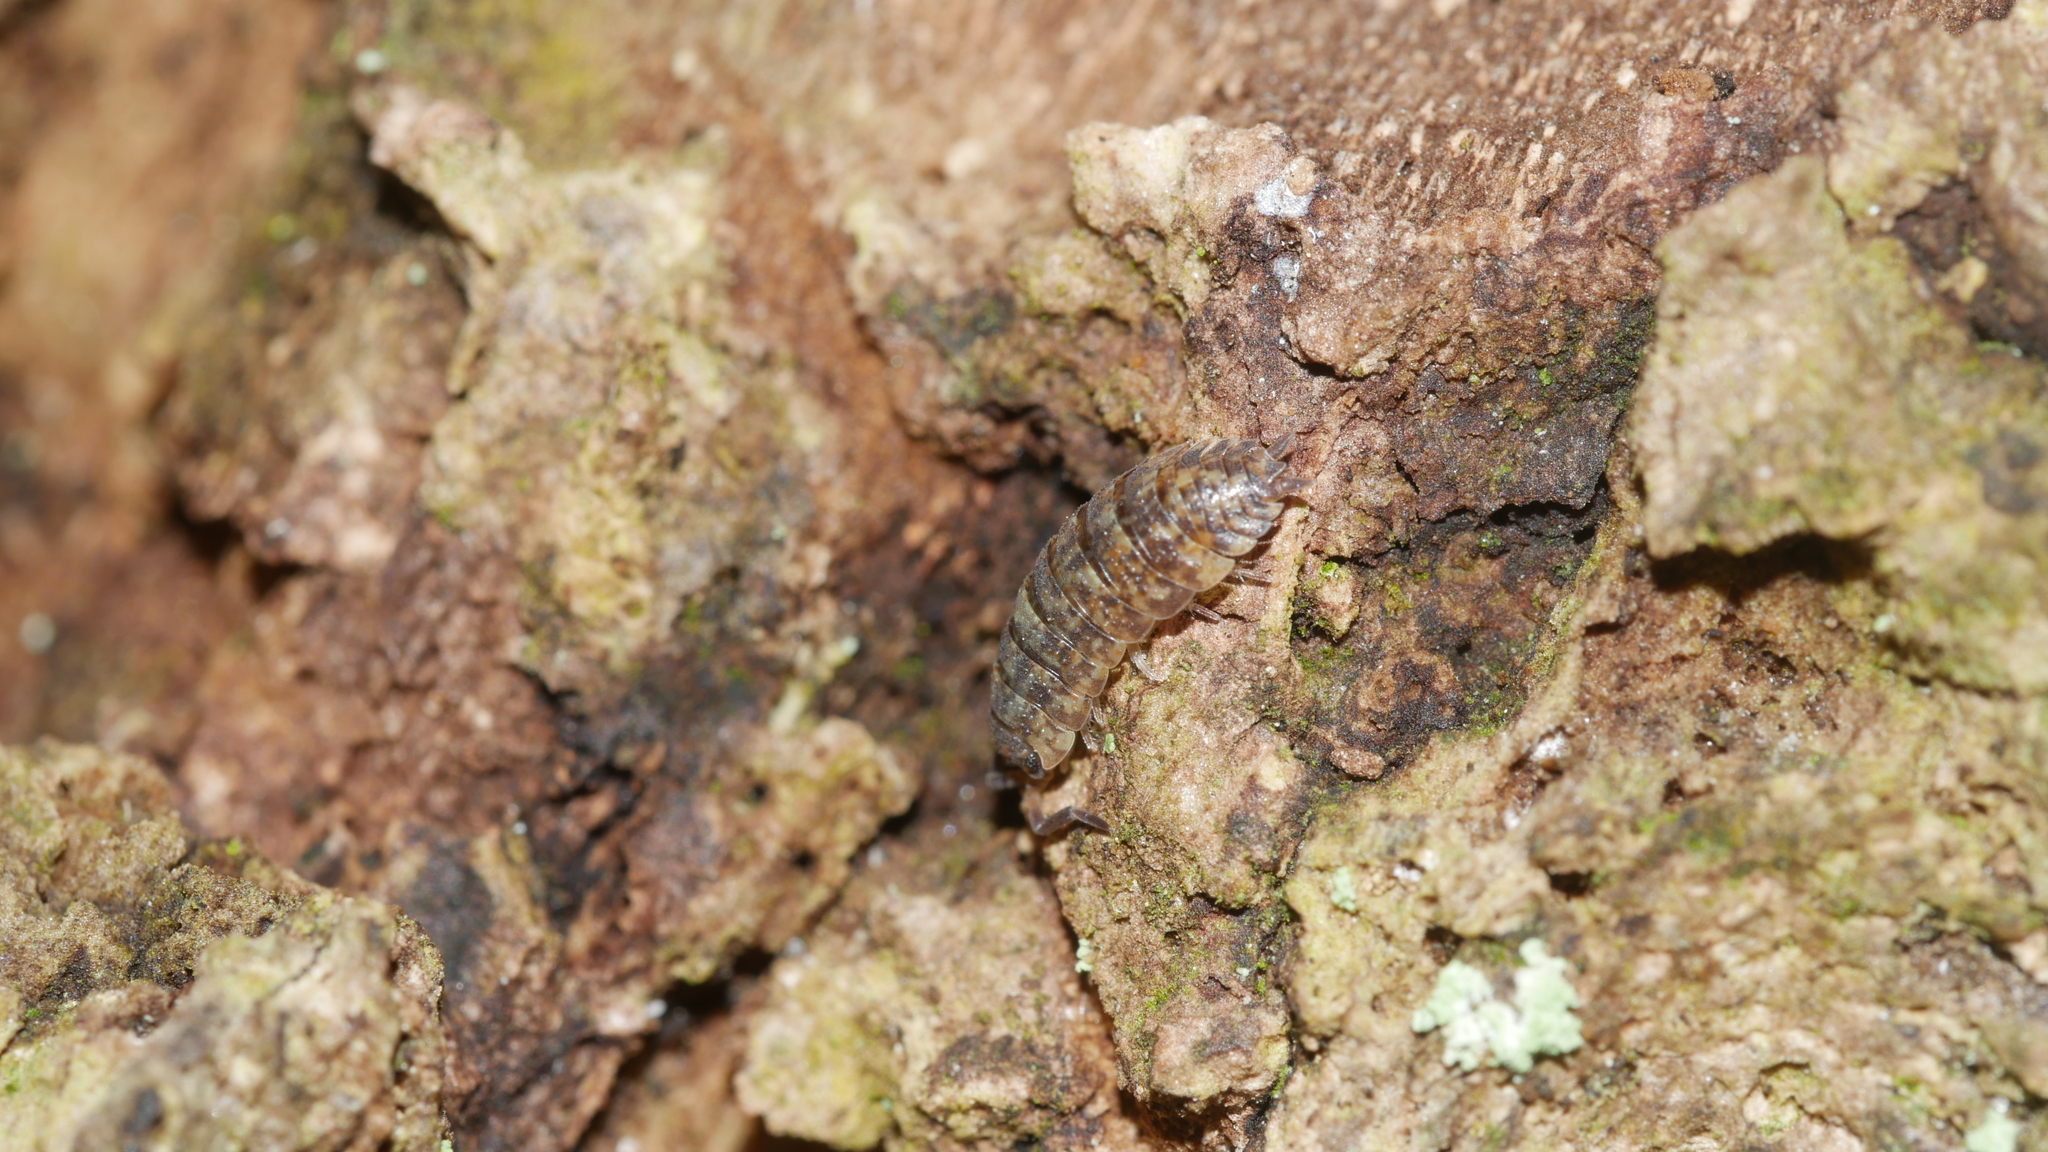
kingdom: Animalia
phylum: Arthropoda
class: Malacostraca
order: Isopoda
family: Porcellionidae
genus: Porcellio
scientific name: Porcellio scaber
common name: Common rough woodlouse
